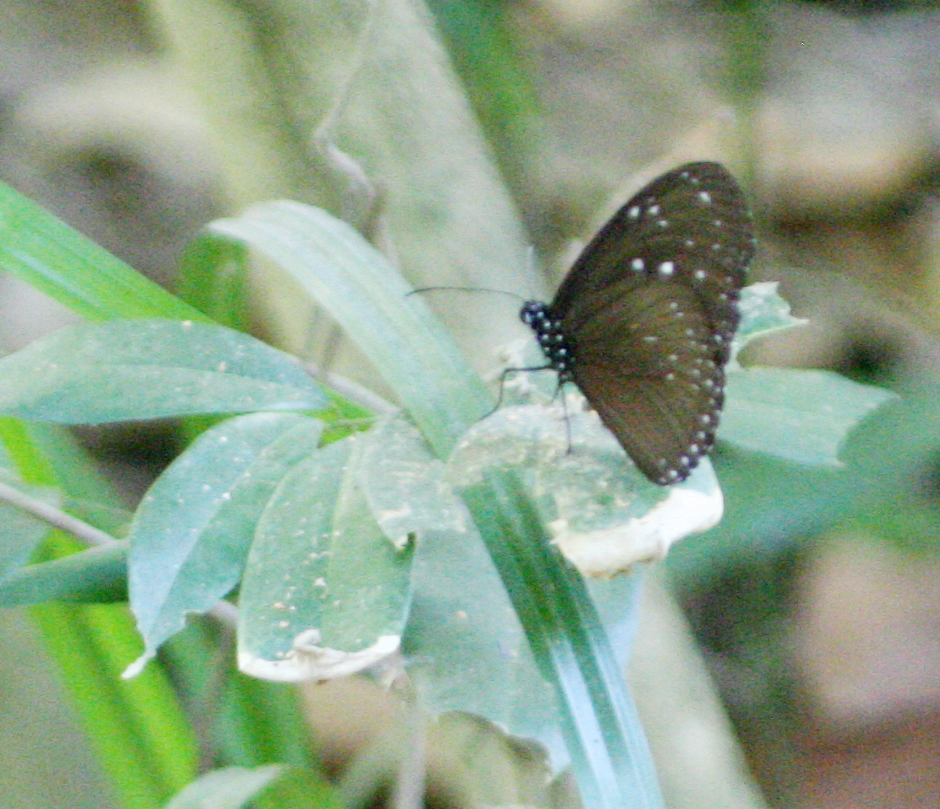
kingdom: Animalia
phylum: Arthropoda
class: Insecta
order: Lepidoptera
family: Nymphalidae
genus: Euploea
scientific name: Euploea mulciber
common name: Striped blue crow butterfly
